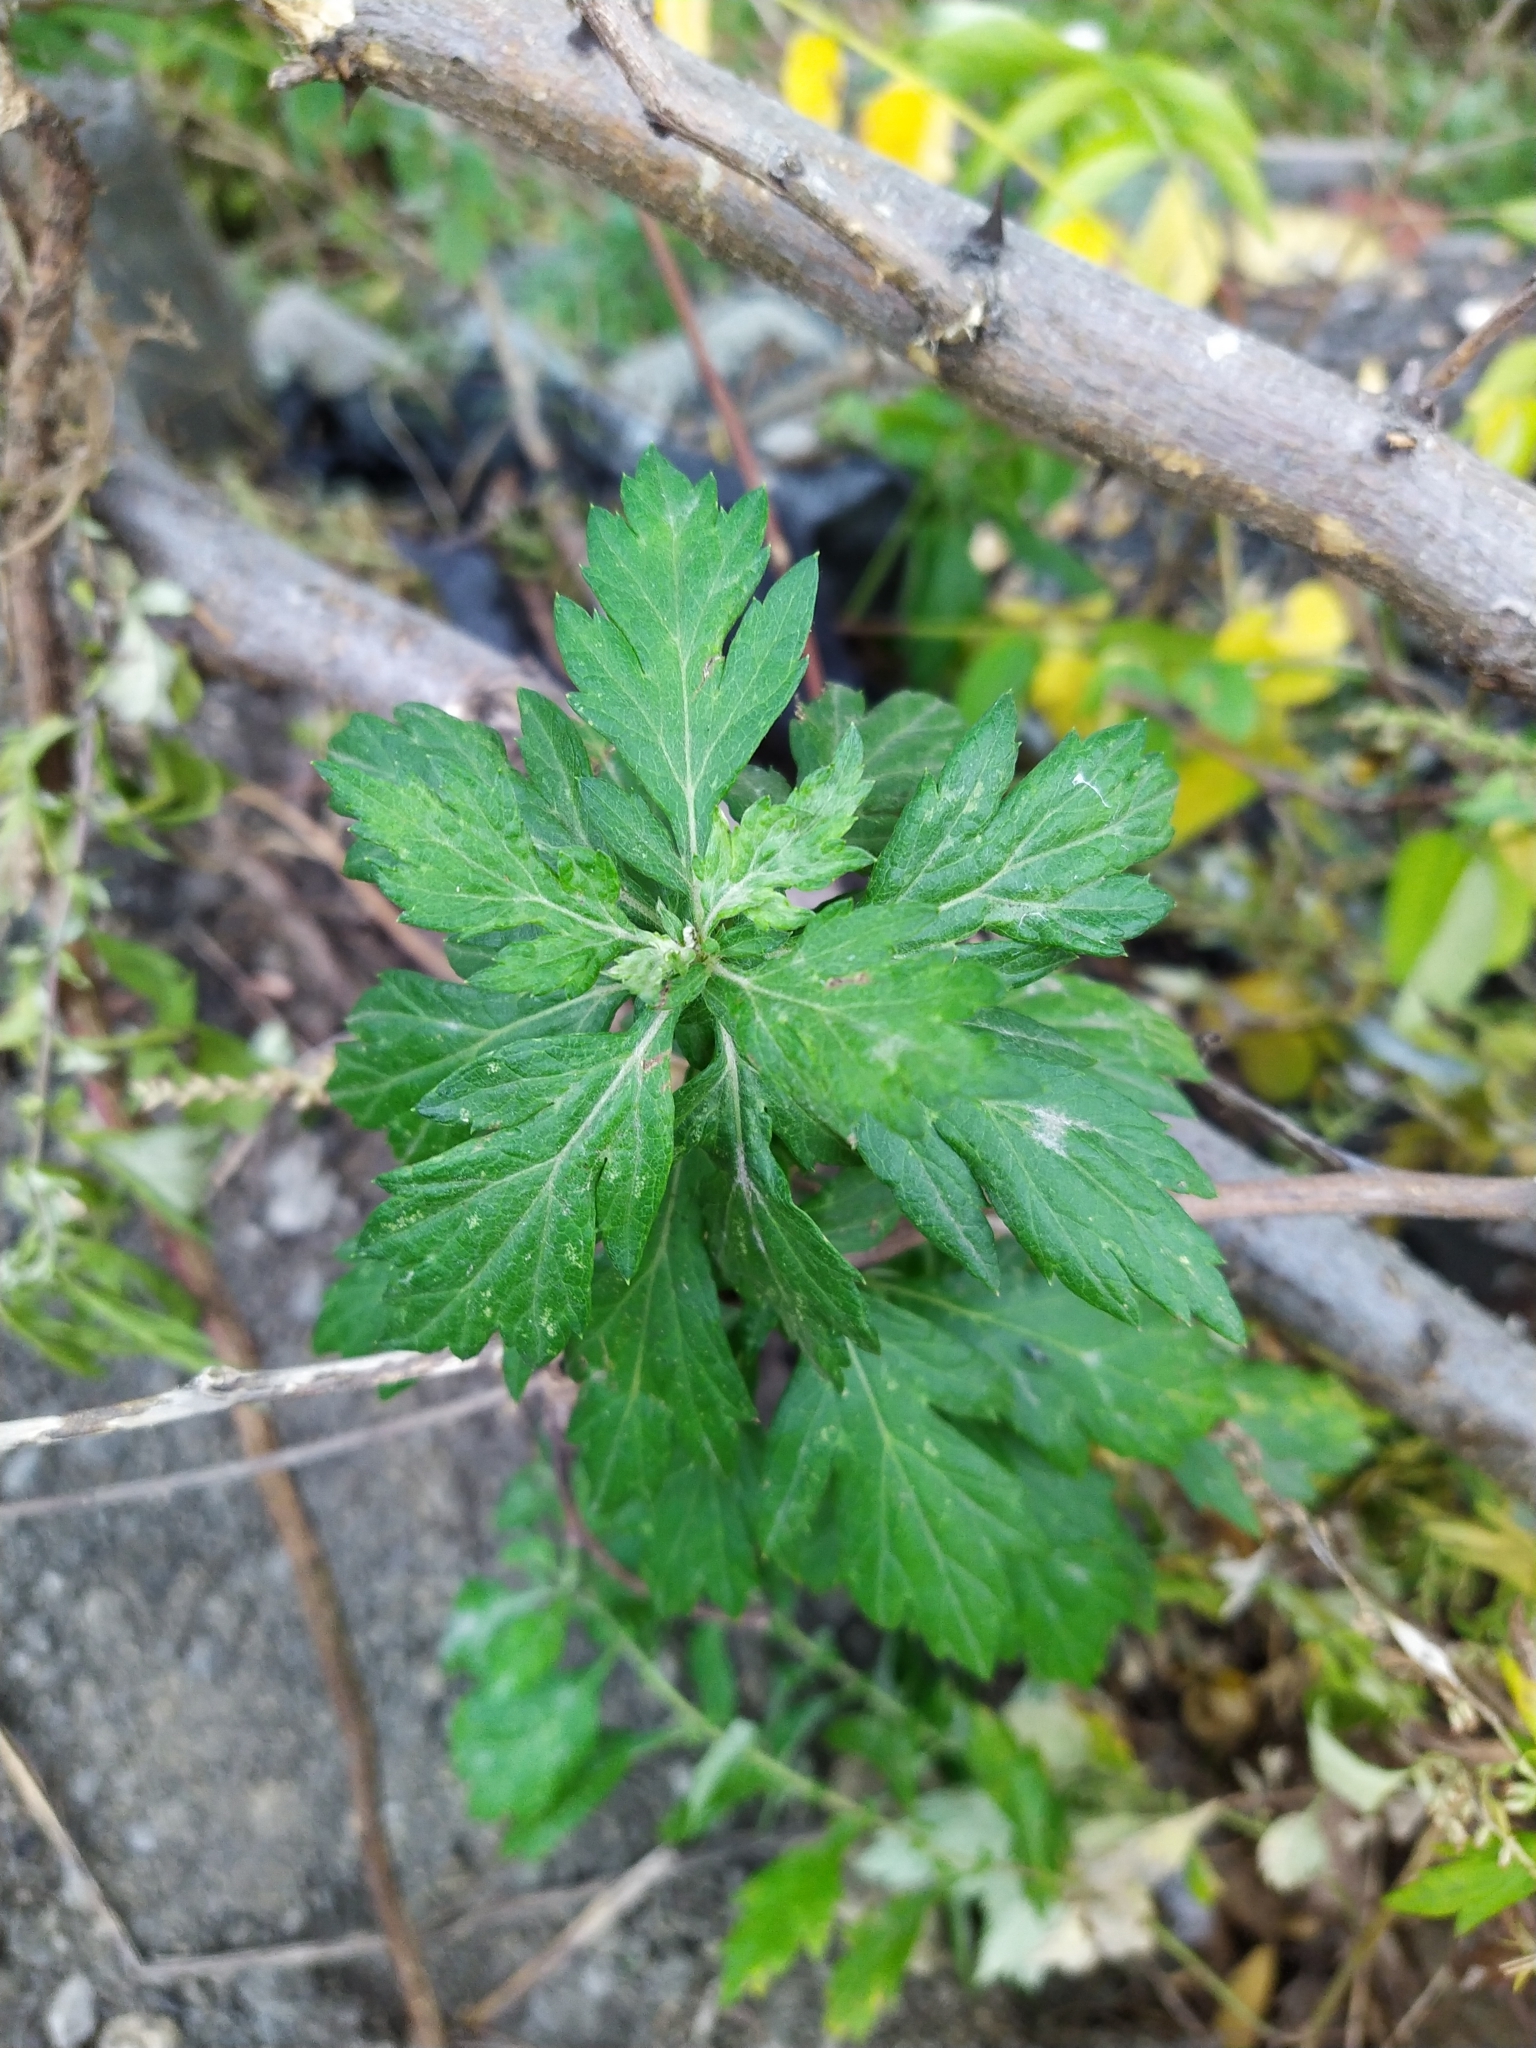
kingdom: Plantae
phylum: Tracheophyta
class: Magnoliopsida
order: Asterales
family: Asteraceae
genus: Artemisia
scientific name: Artemisia vulgaris
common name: Mugwort
